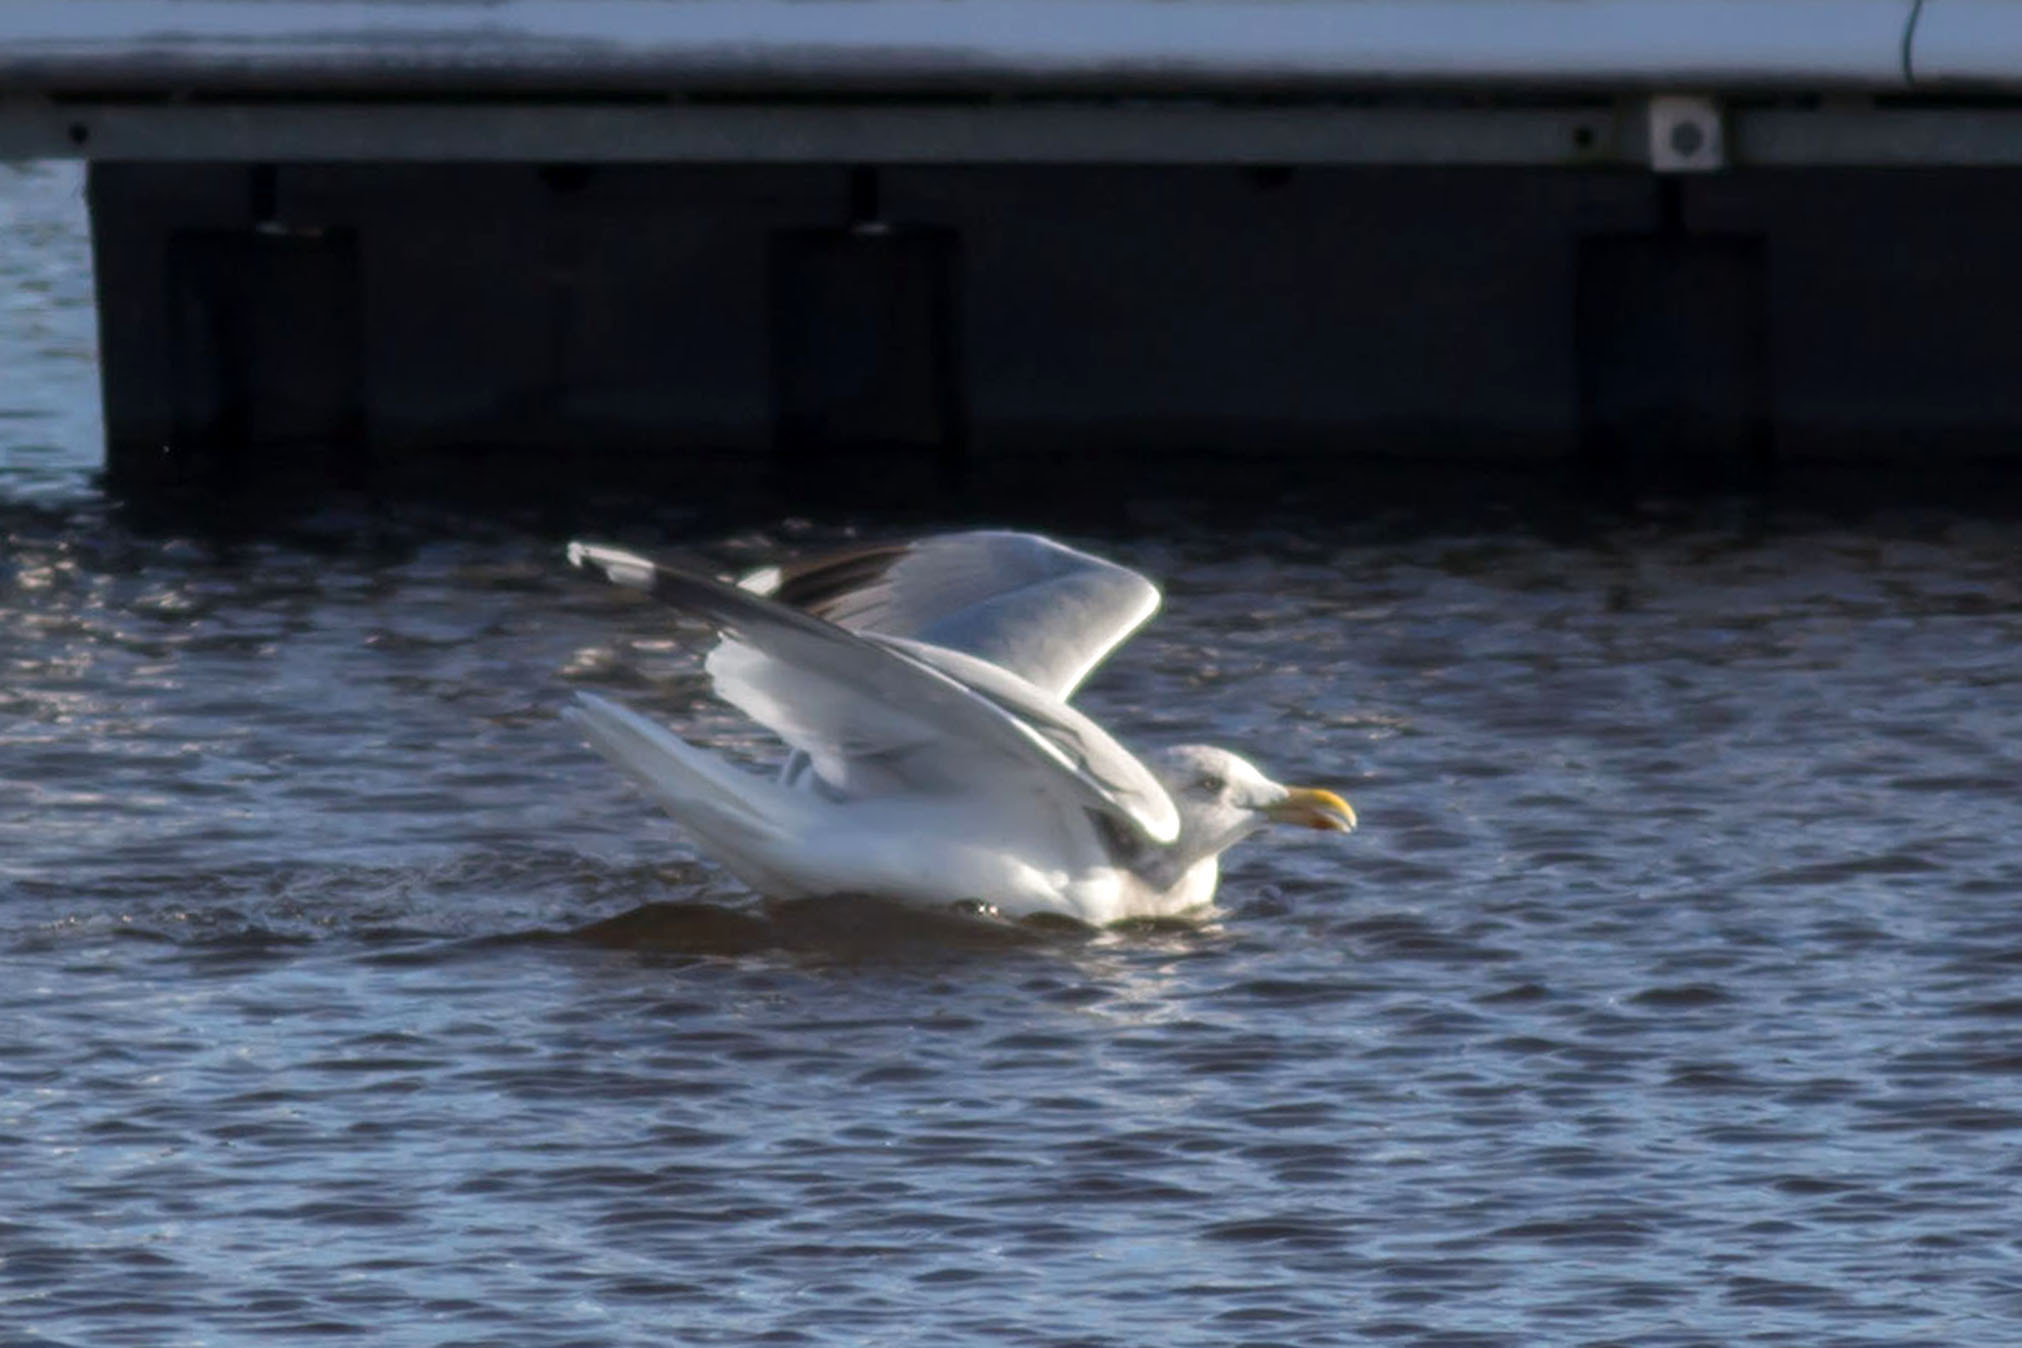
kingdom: Animalia
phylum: Chordata
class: Aves
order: Charadriiformes
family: Laridae
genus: Larus
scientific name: Larus argentatus
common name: Herring gull
